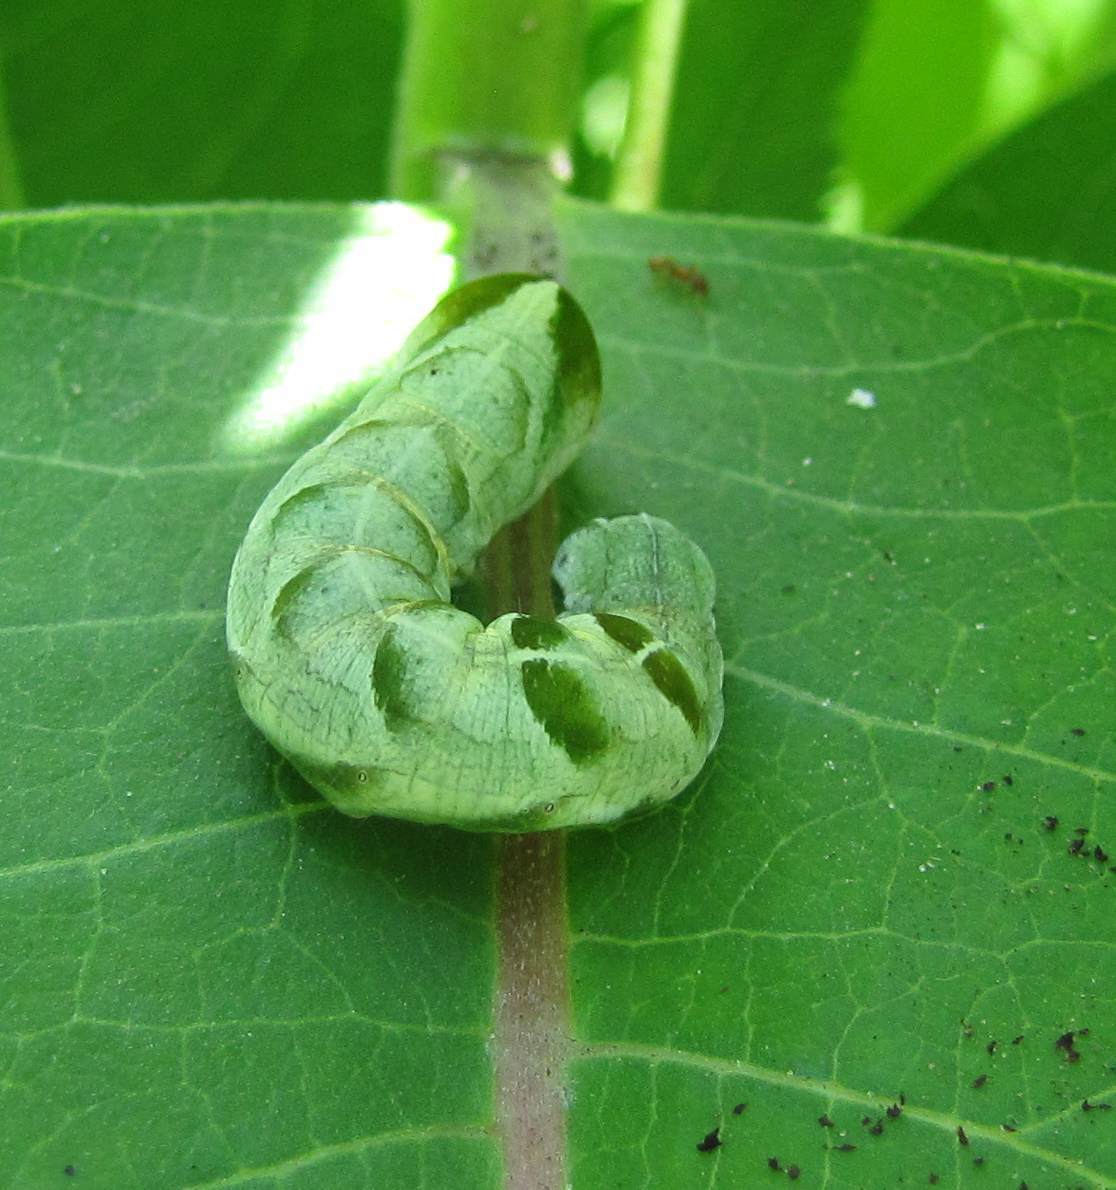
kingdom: Animalia
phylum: Arthropoda
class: Insecta
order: Lepidoptera
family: Noctuidae
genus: Melanchra
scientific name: Melanchra adjuncta
